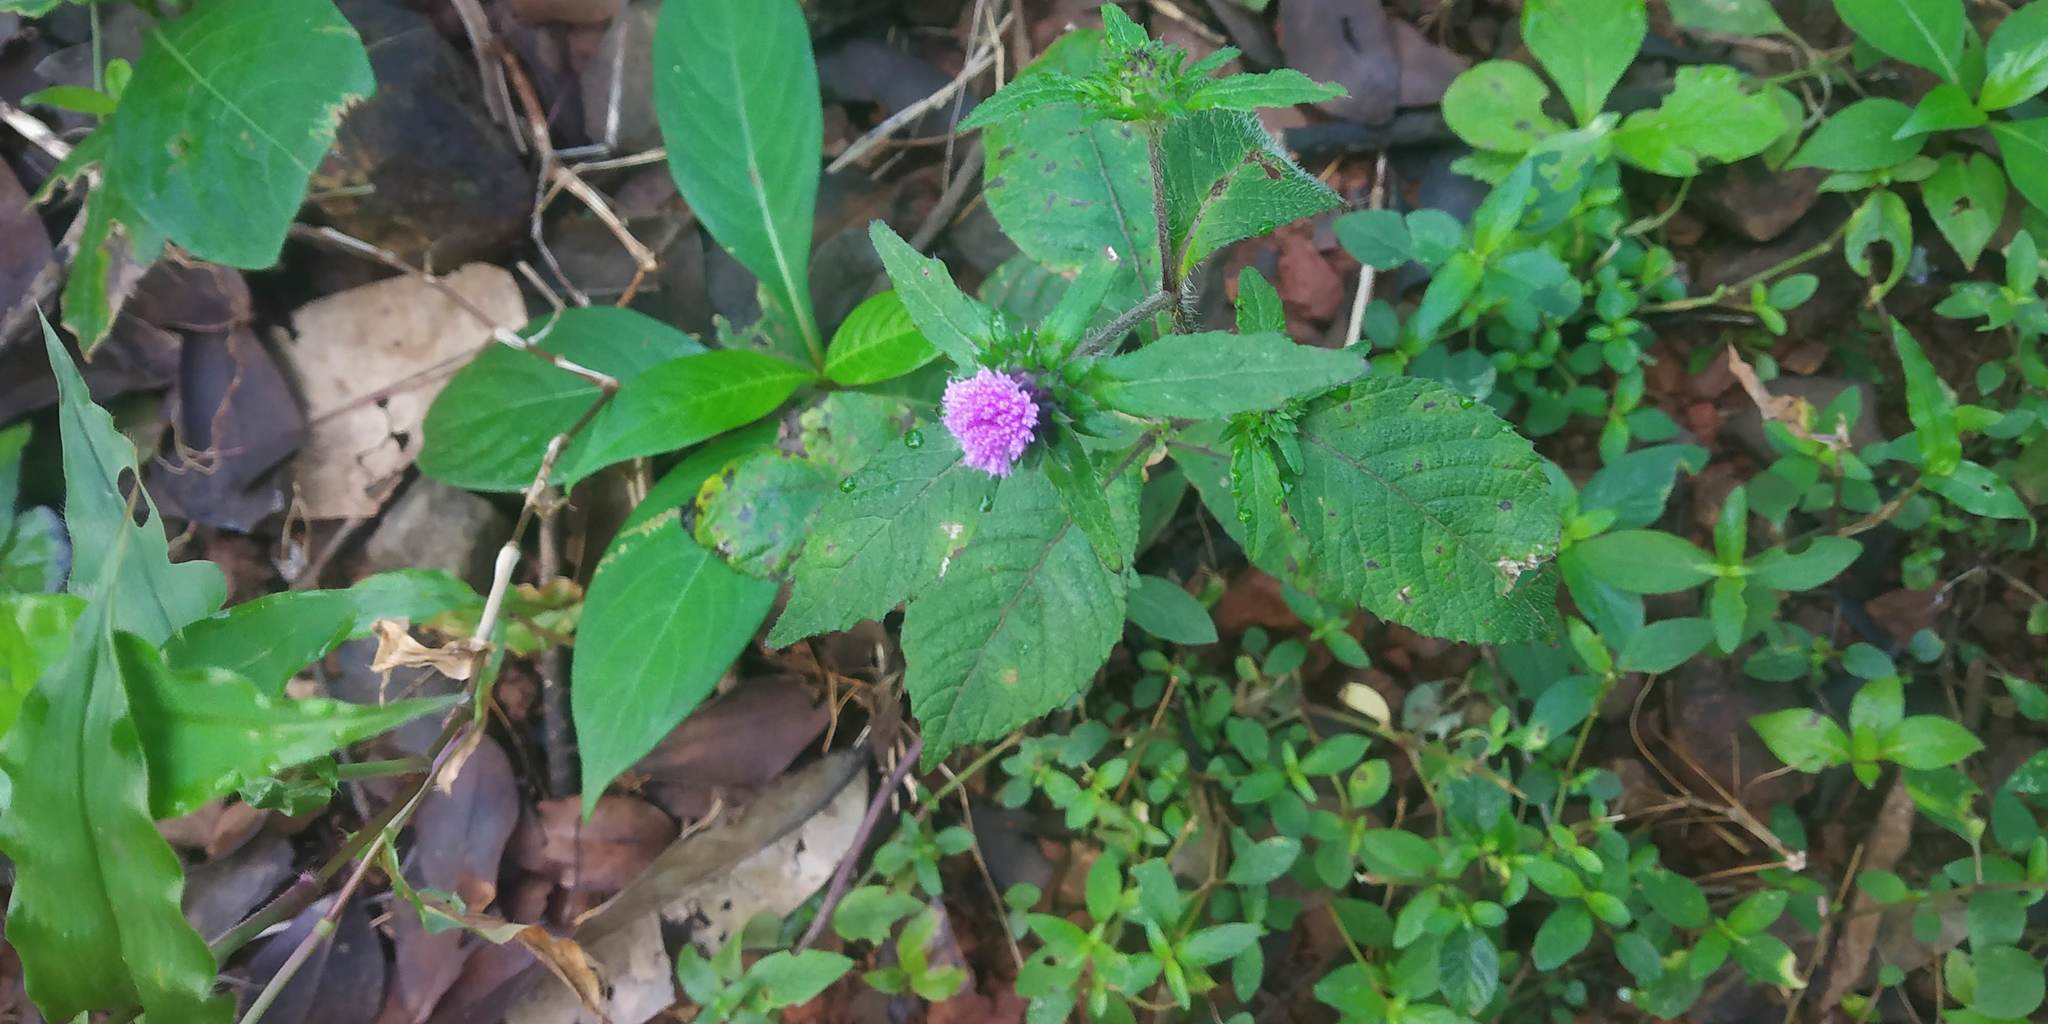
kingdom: Plantae
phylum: Tracheophyta
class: Magnoliopsida
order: Asterales
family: Asteraceae
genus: Phyllocephalum
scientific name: Phyllocephalum scabridum
